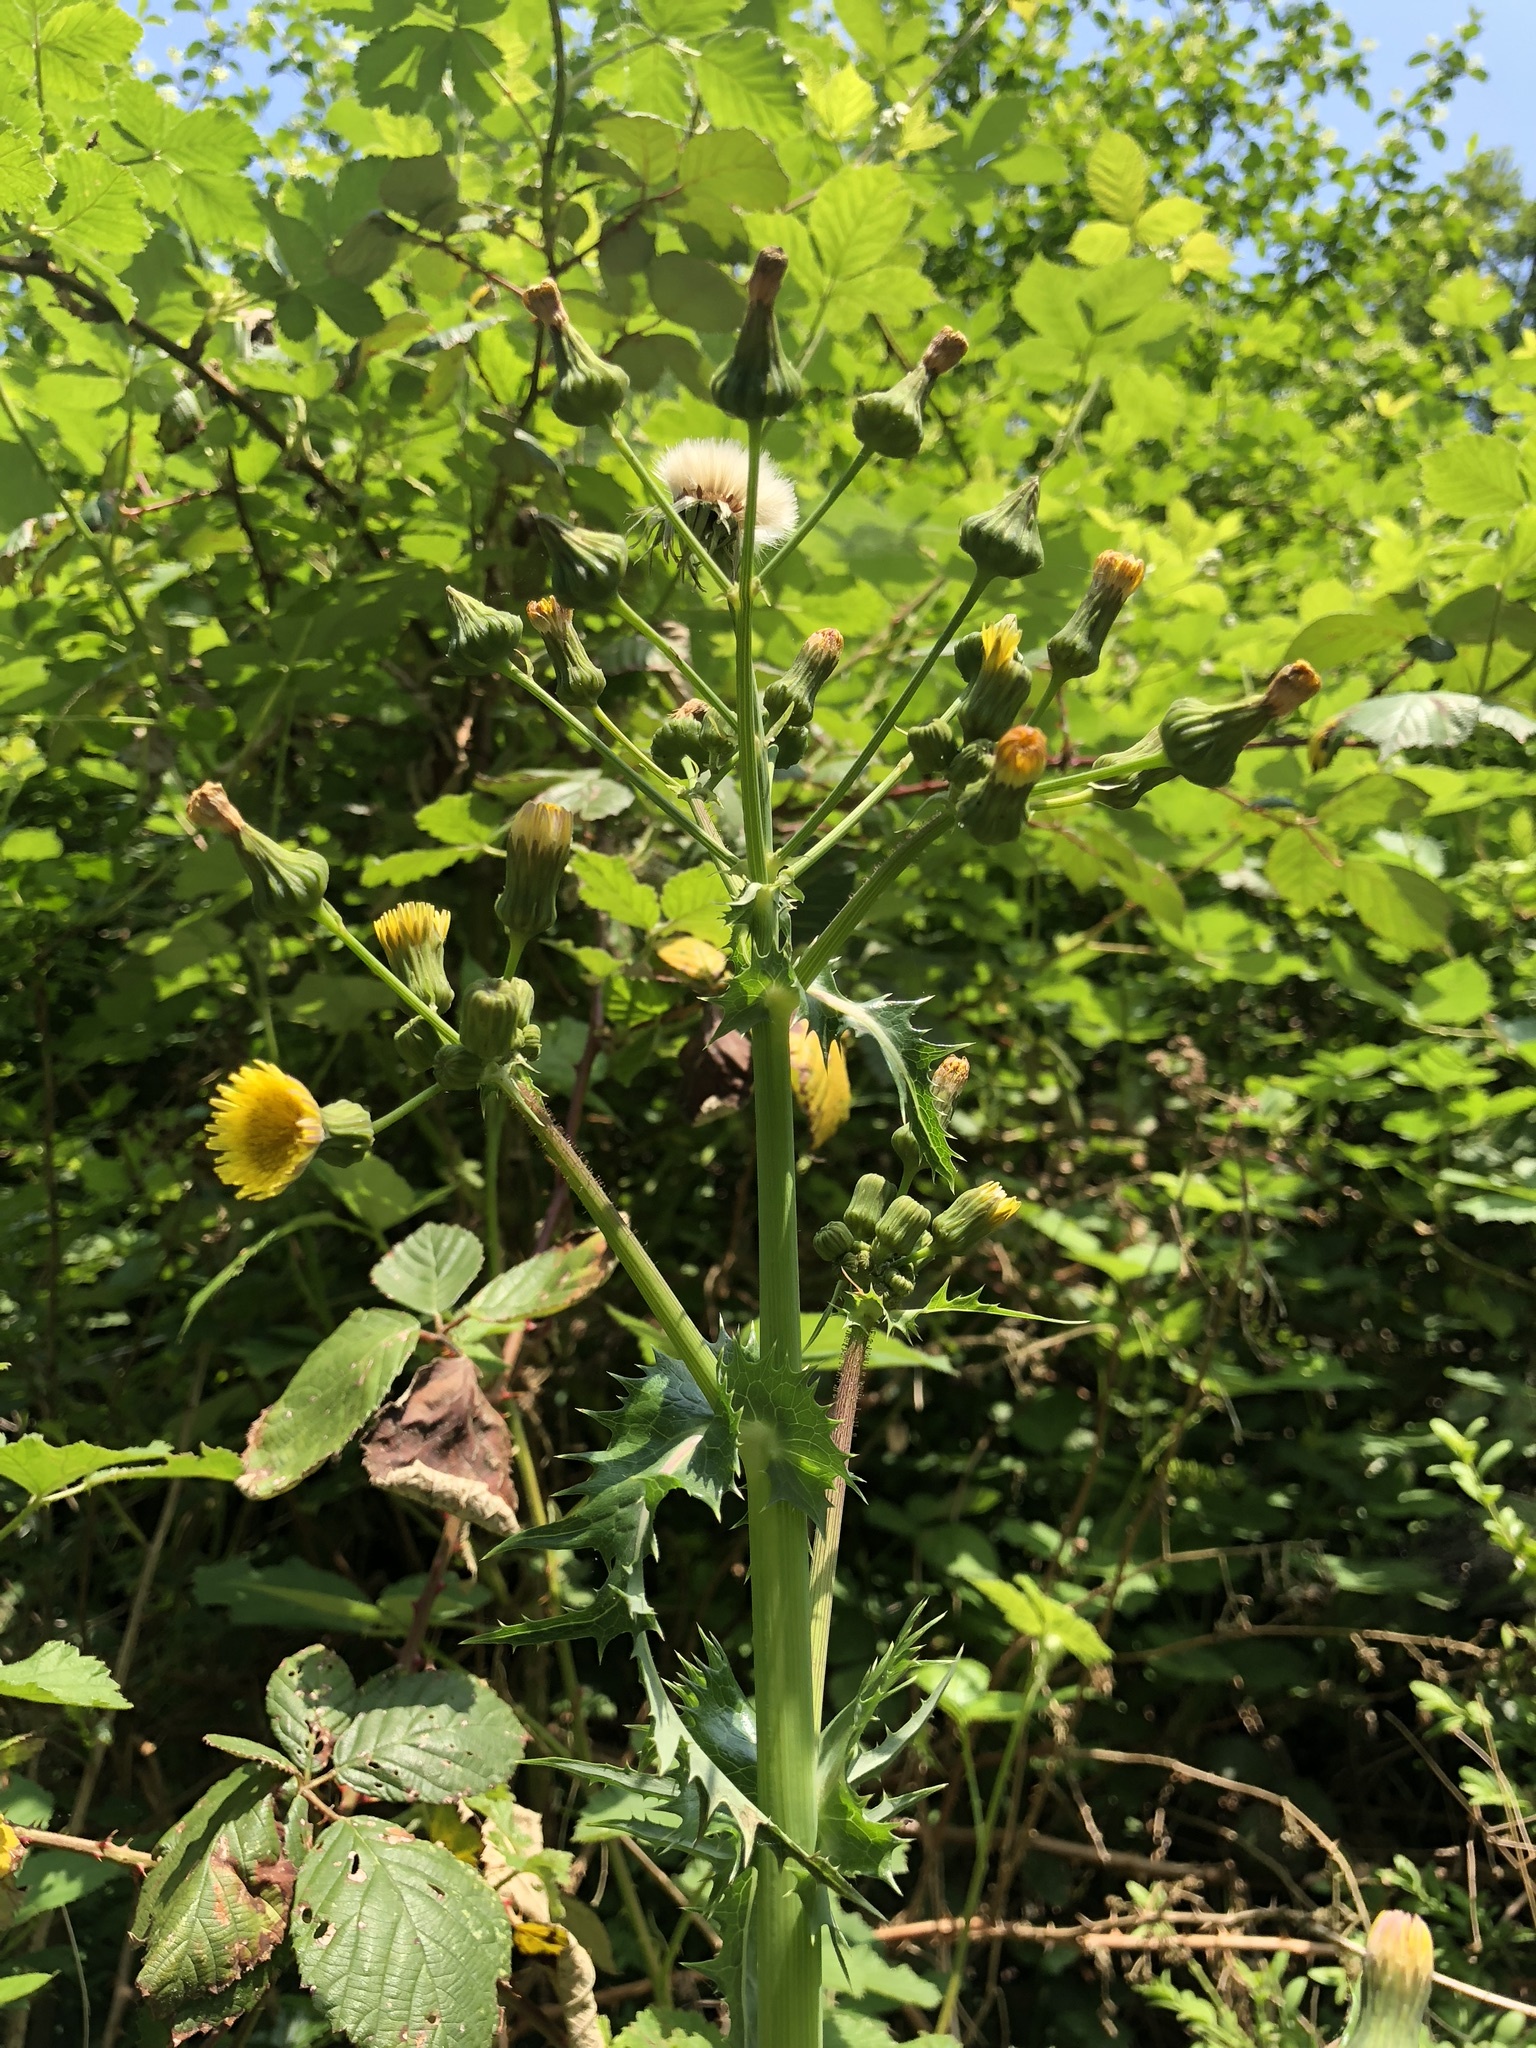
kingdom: Plantae
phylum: Tracheophyta
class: Magnoliopsida
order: Asterales
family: Asteraceae
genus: Sonchus
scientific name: Sonchus oleraceus
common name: Common sowthistle
